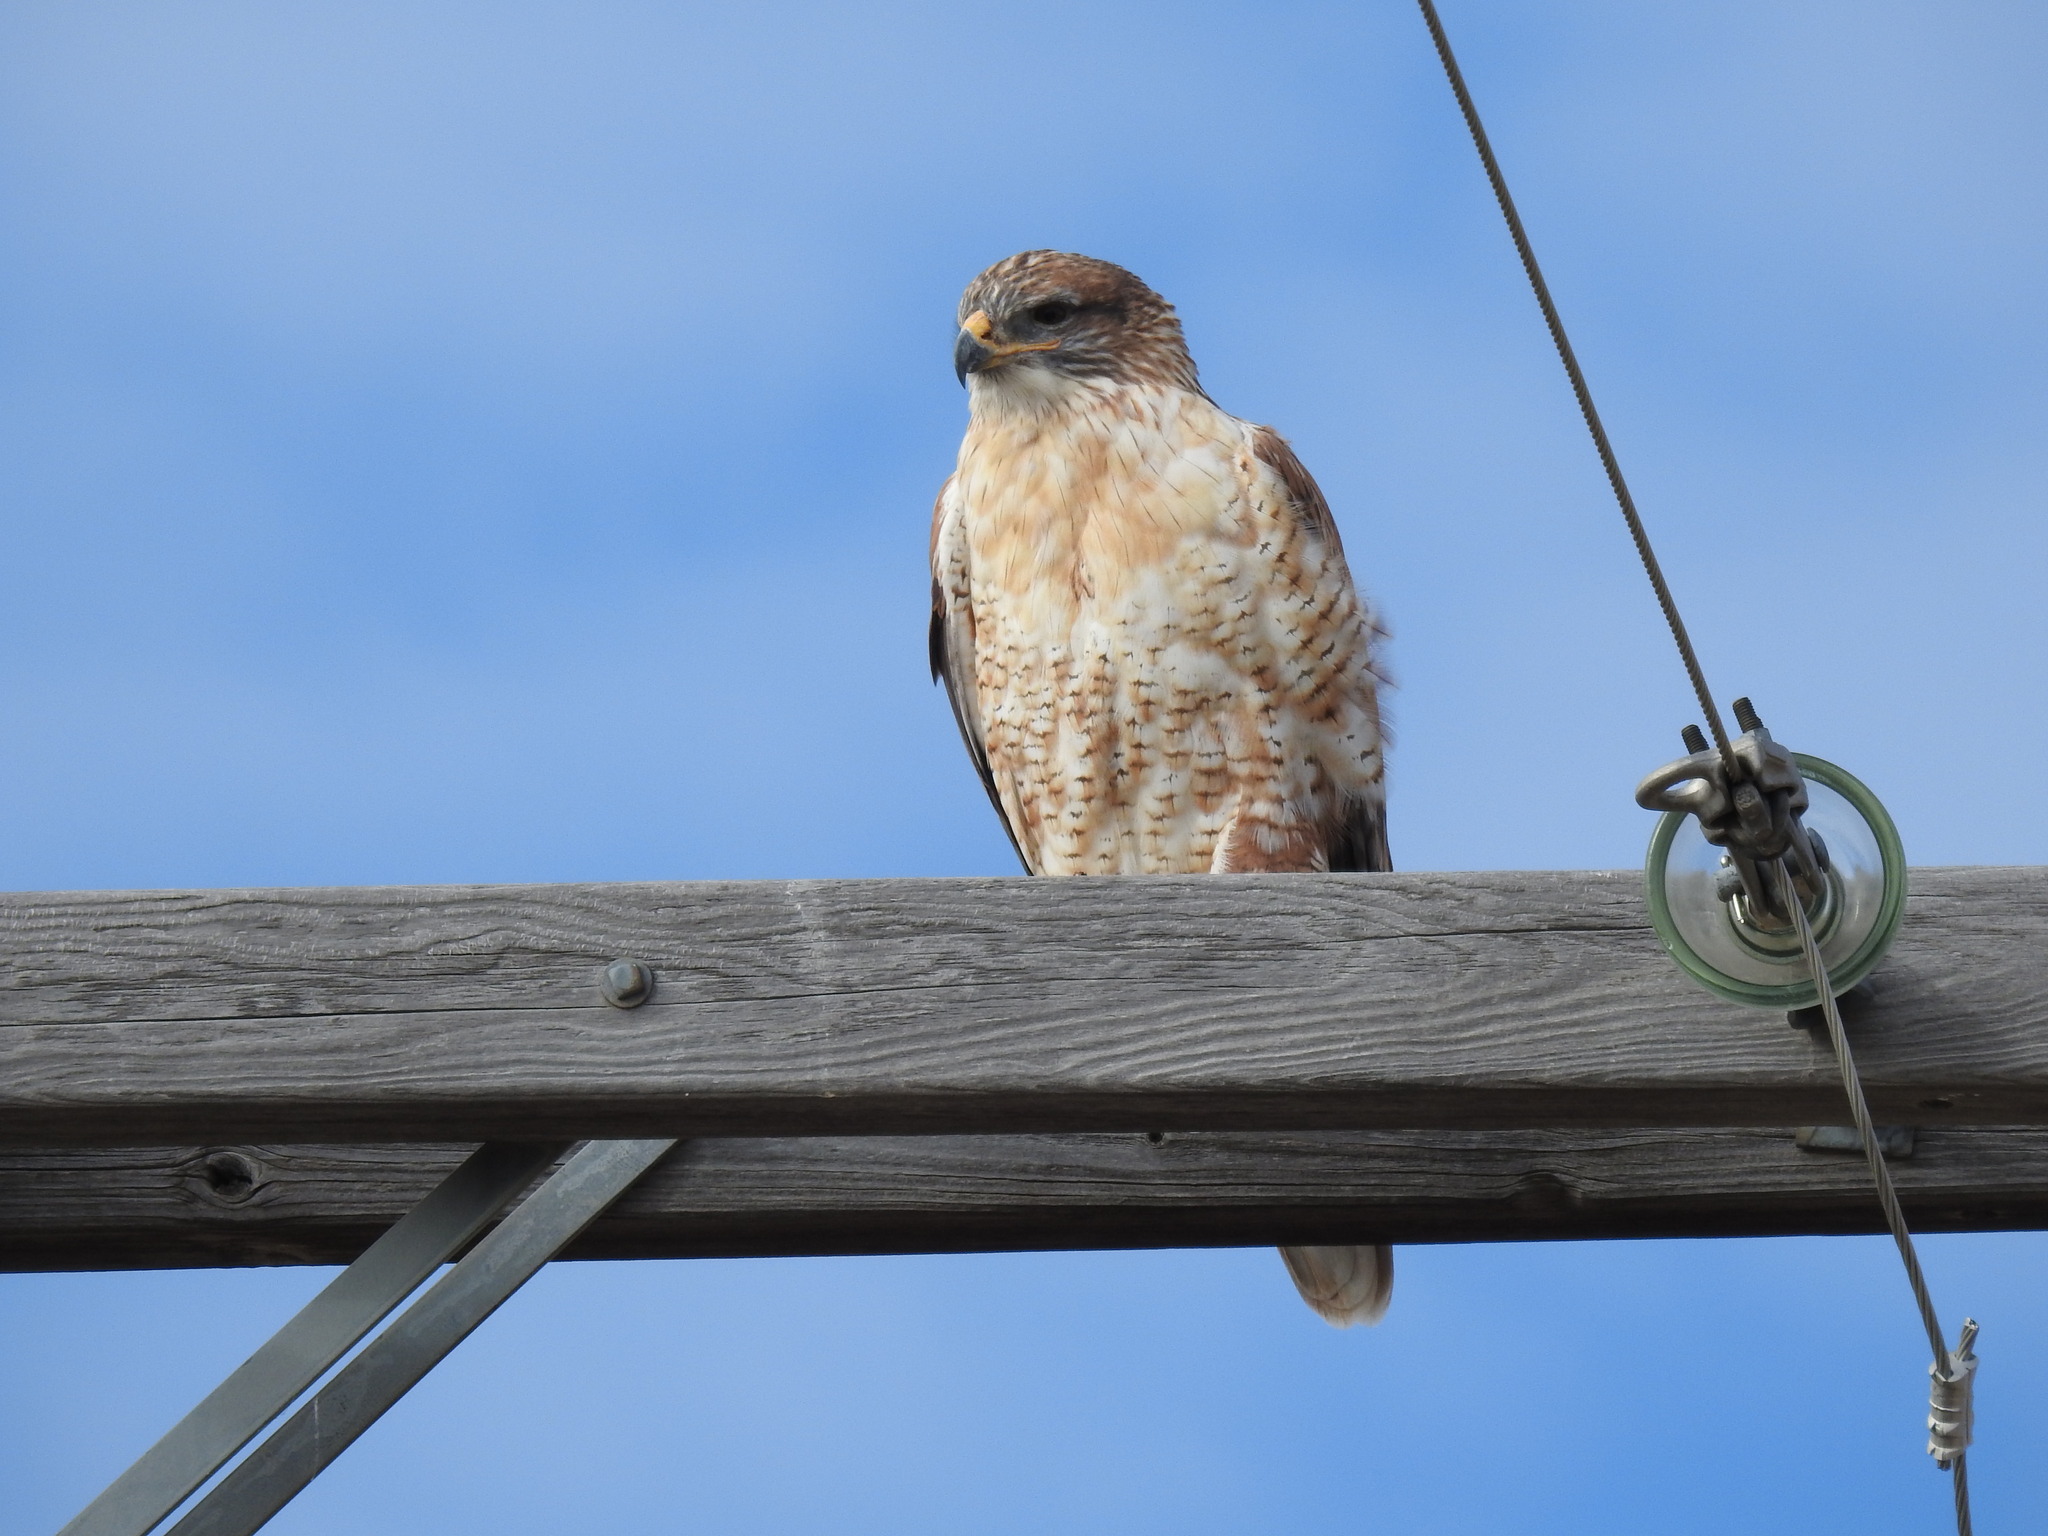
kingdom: Animalia
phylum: Chordata
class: Aves
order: Accipitriformes
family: Accipitridae
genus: Buteo
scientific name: Buteo regalis
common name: Ferruginous hawk
